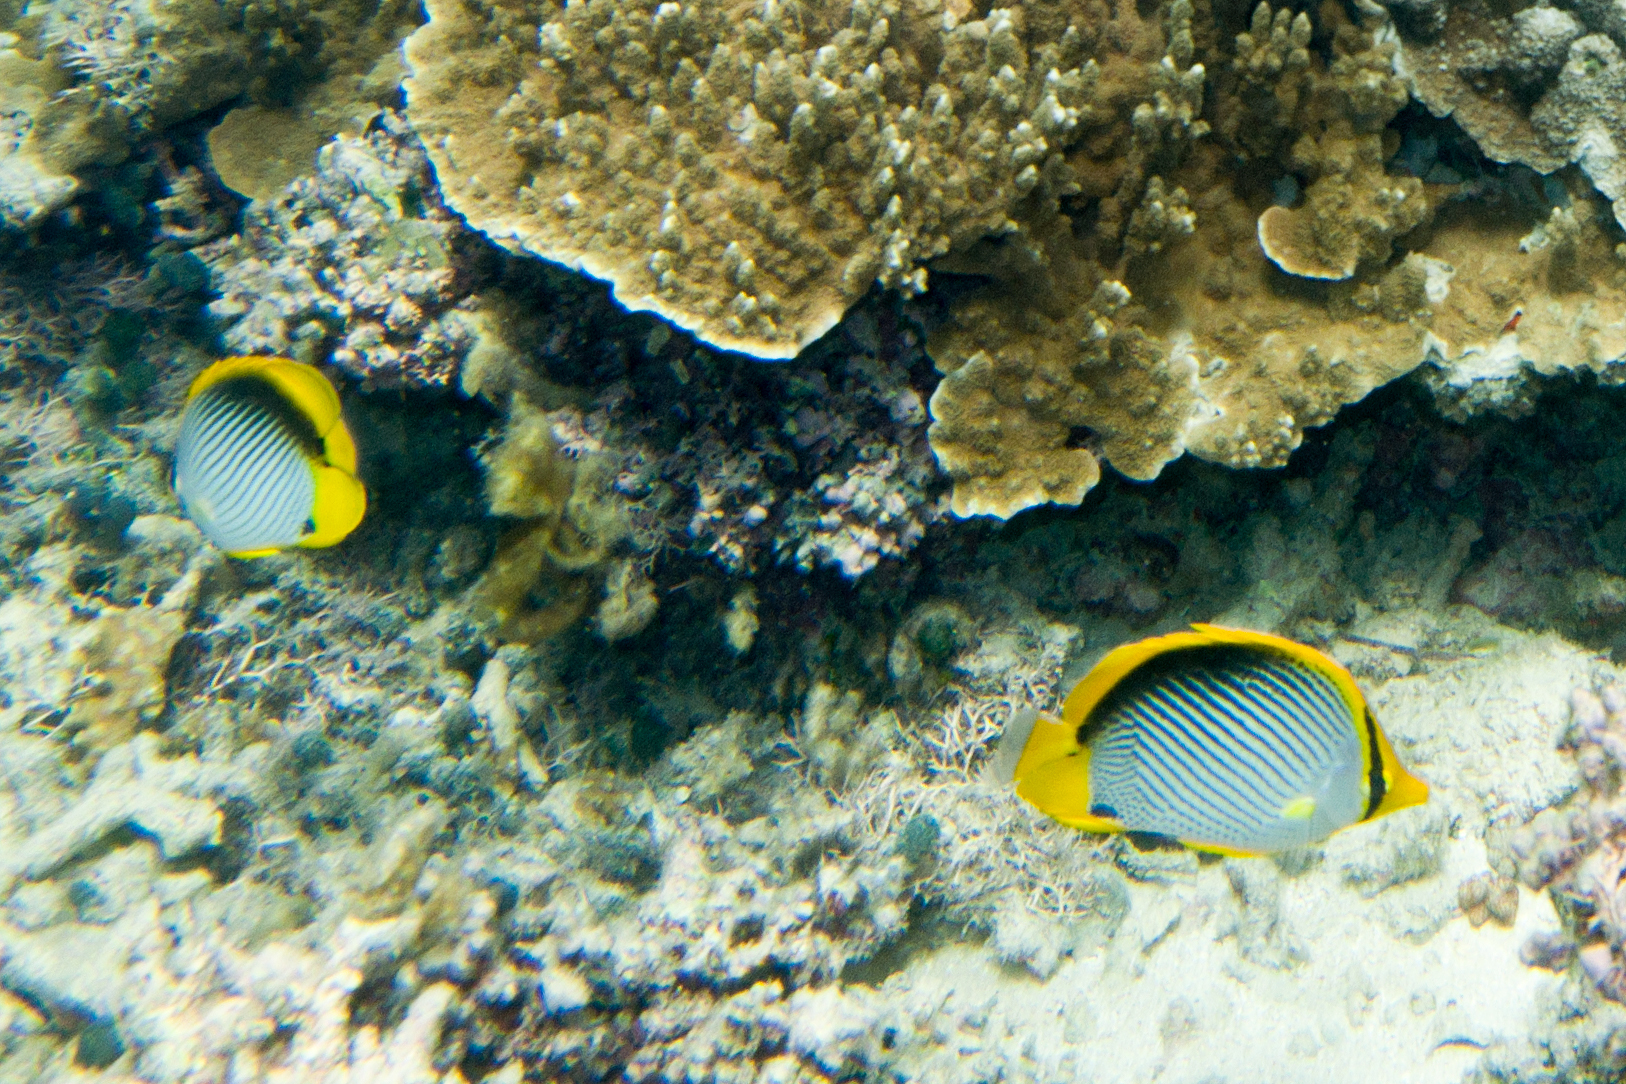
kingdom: Animalia
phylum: Chordata
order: Perciformes
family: Chaetodontidae
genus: Chaetodon
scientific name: Chaetodon melannotus
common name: Blackback butterflyfish
